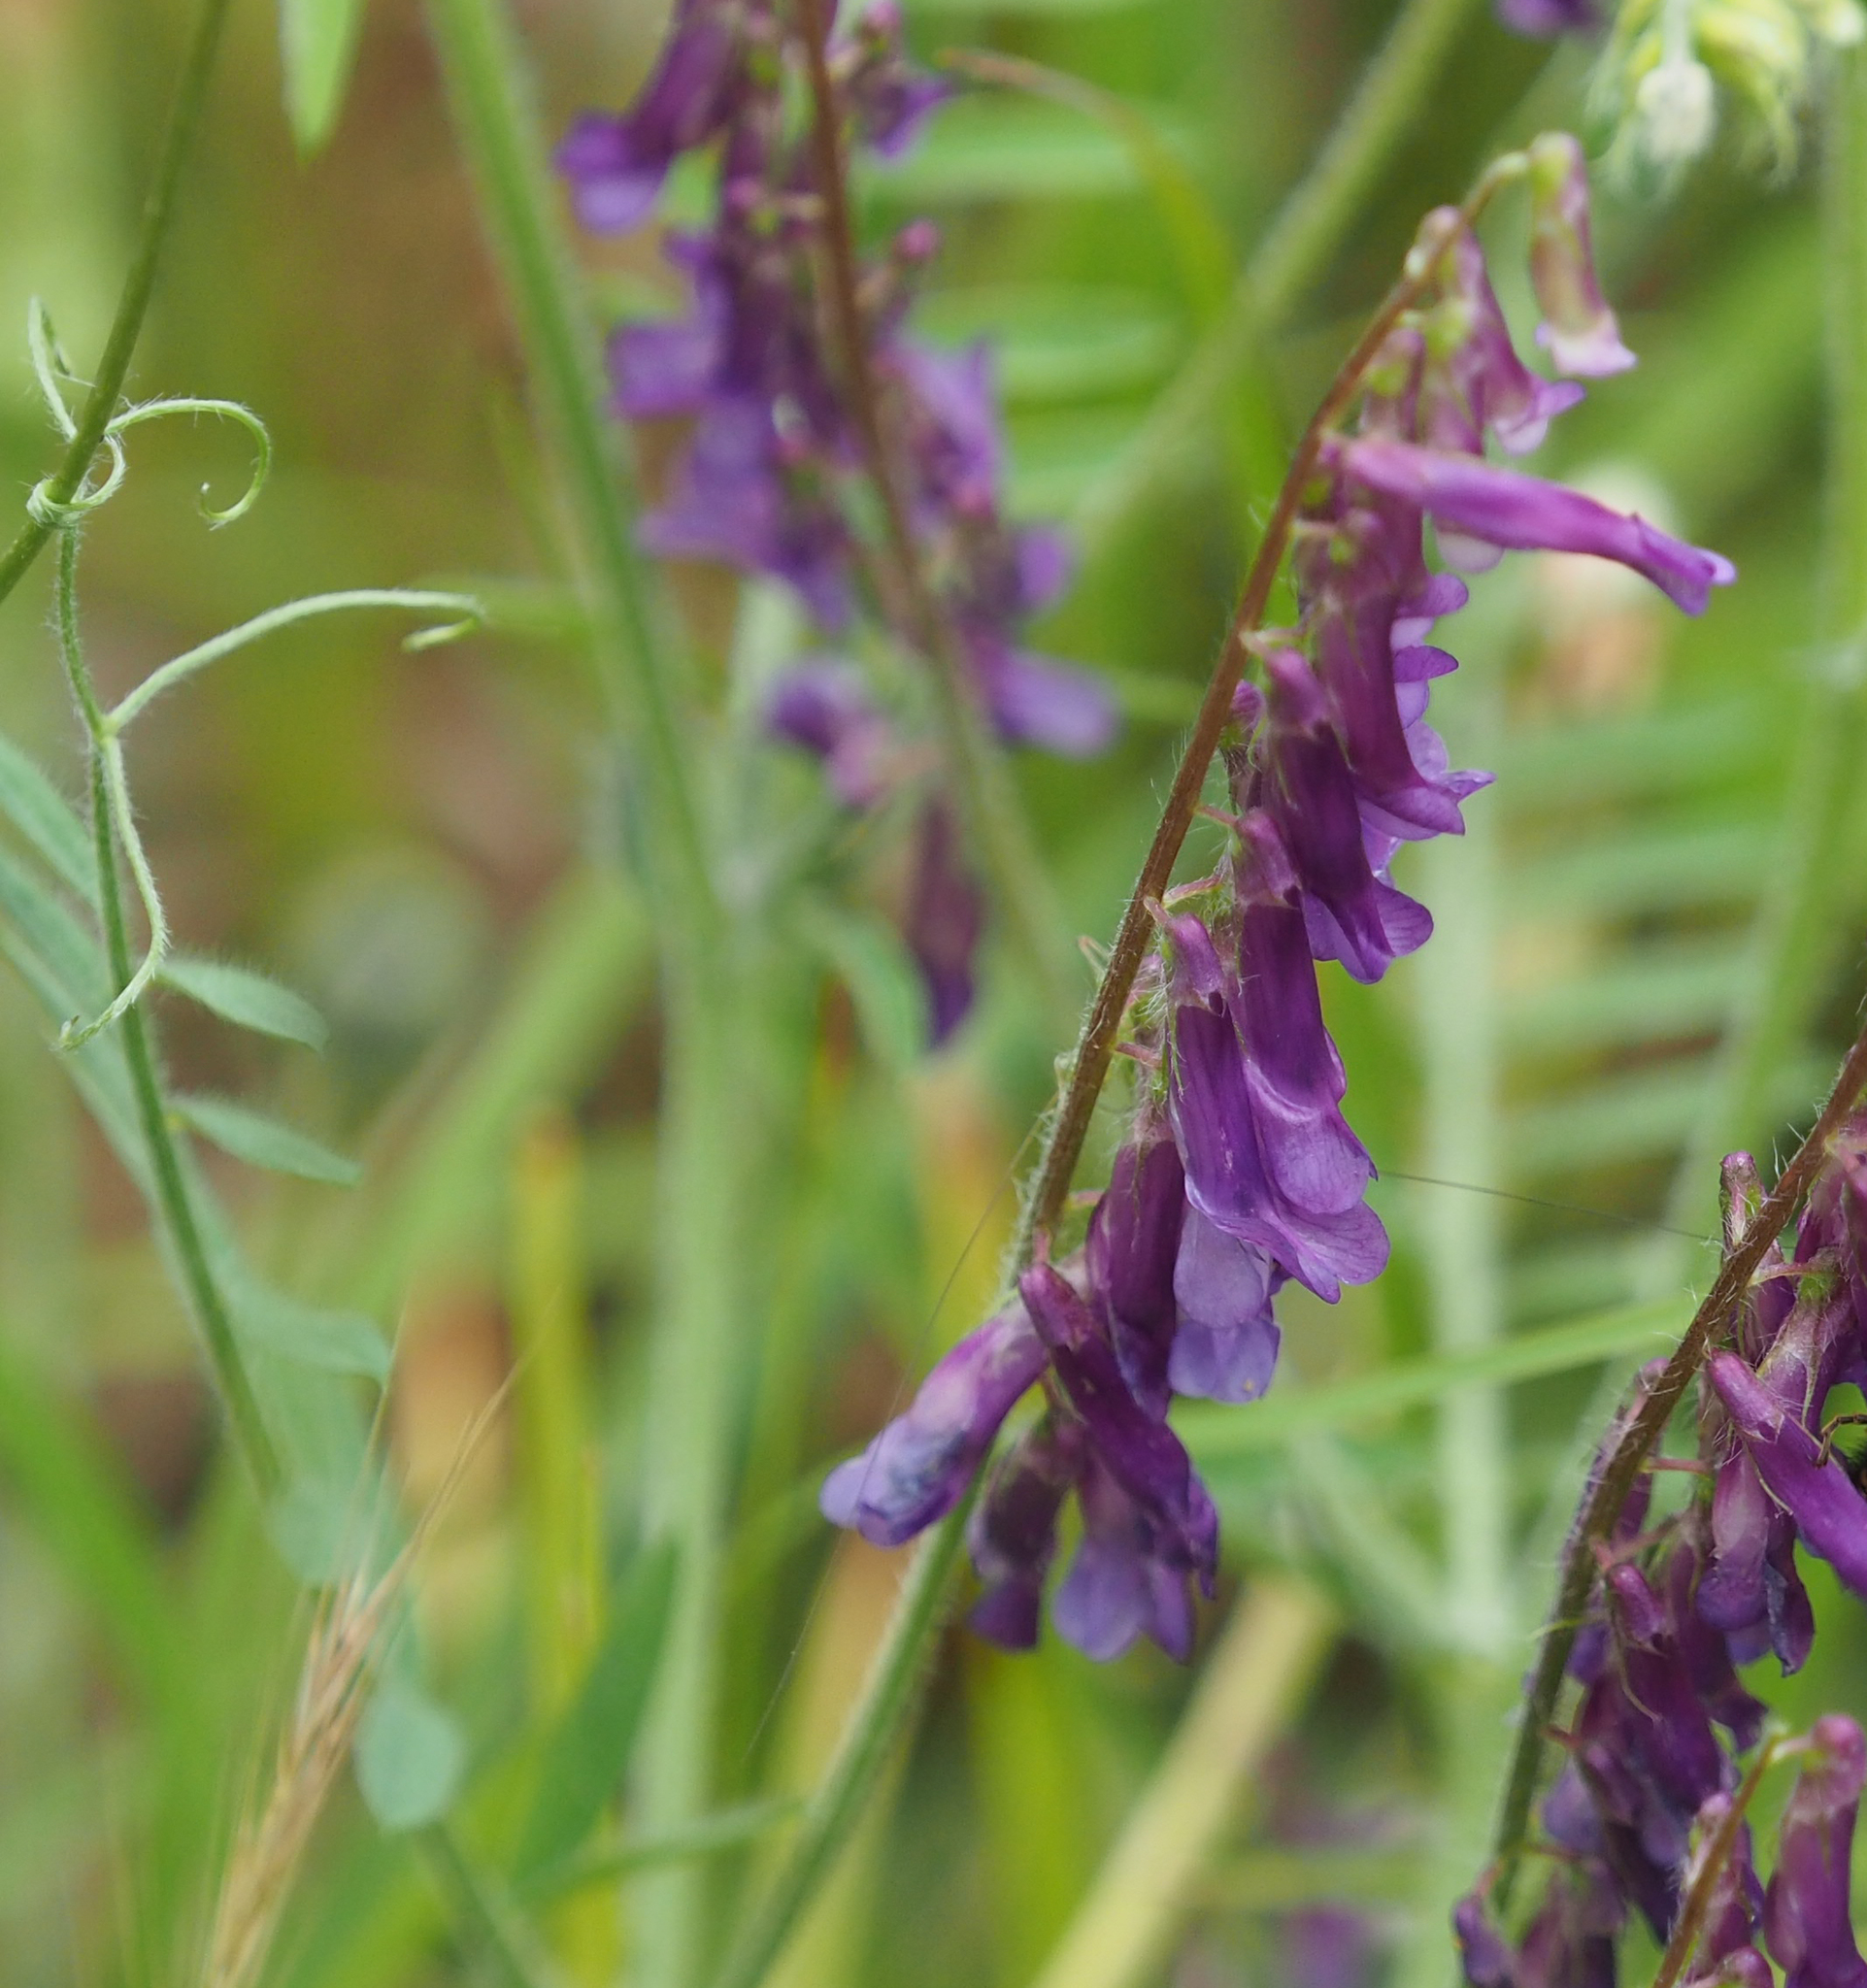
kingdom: Plantae
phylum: Tracheophyta
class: Magnoliopsida
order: Fabales
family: Fabaceae
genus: Vicia
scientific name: Vicia villosa
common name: Fodder vetch
